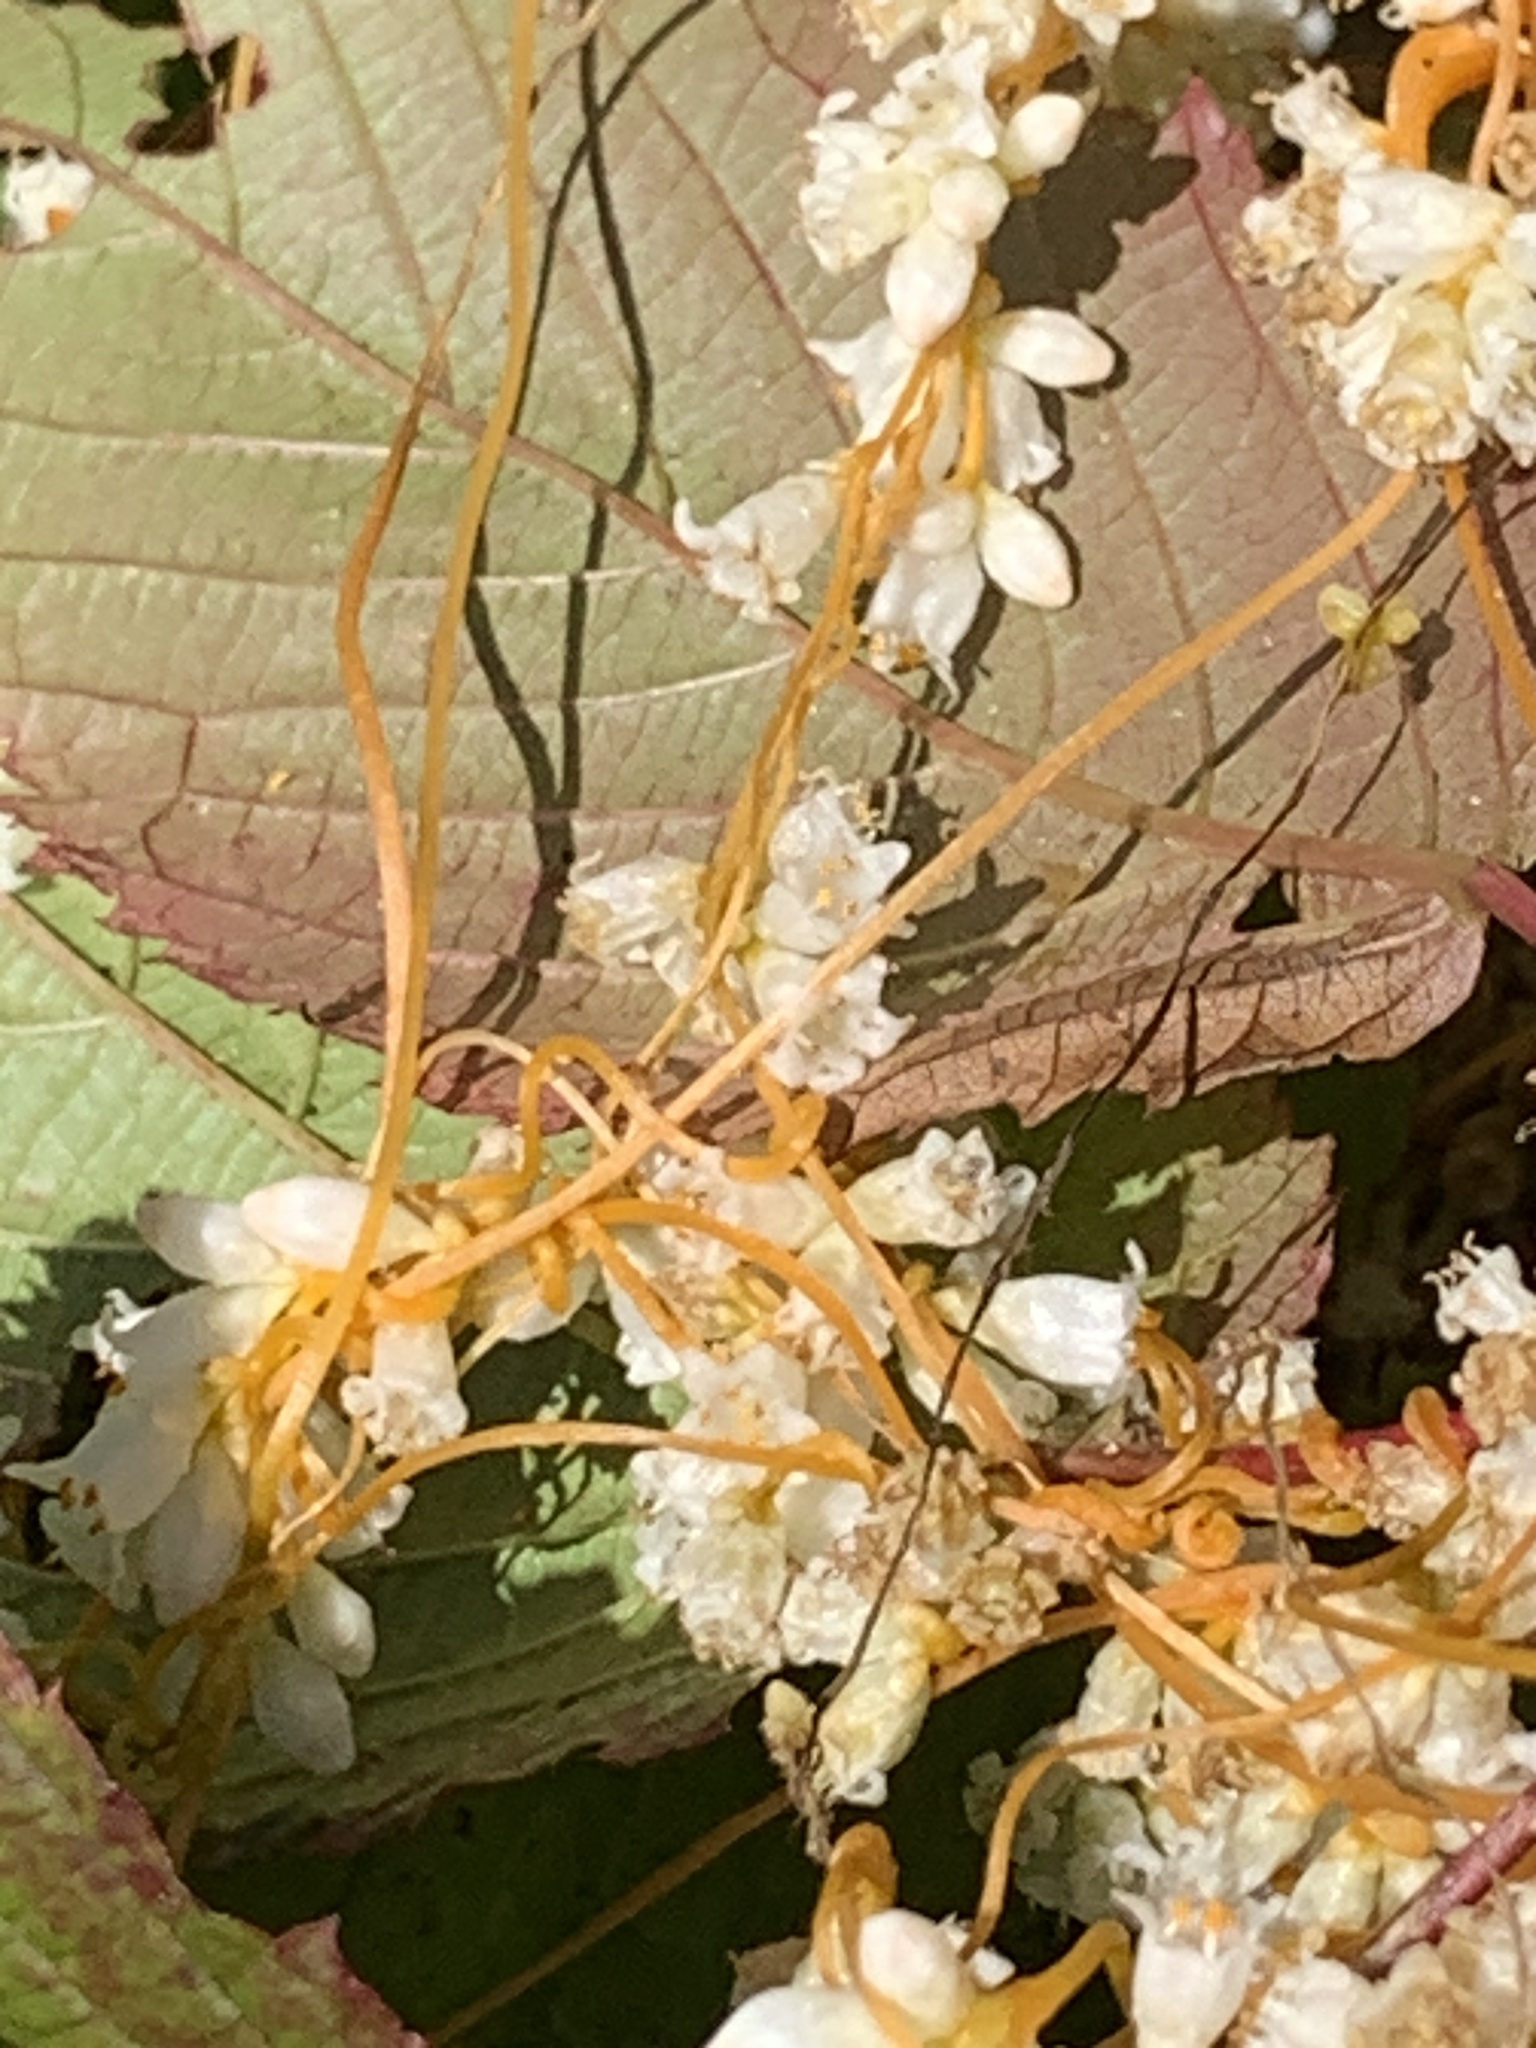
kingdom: Plantae
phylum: Tracheophyta
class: Magnoliopsida
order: Solanales
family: Convolvulaceae
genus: Cuscuta
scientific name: Cuscuta rostrata
